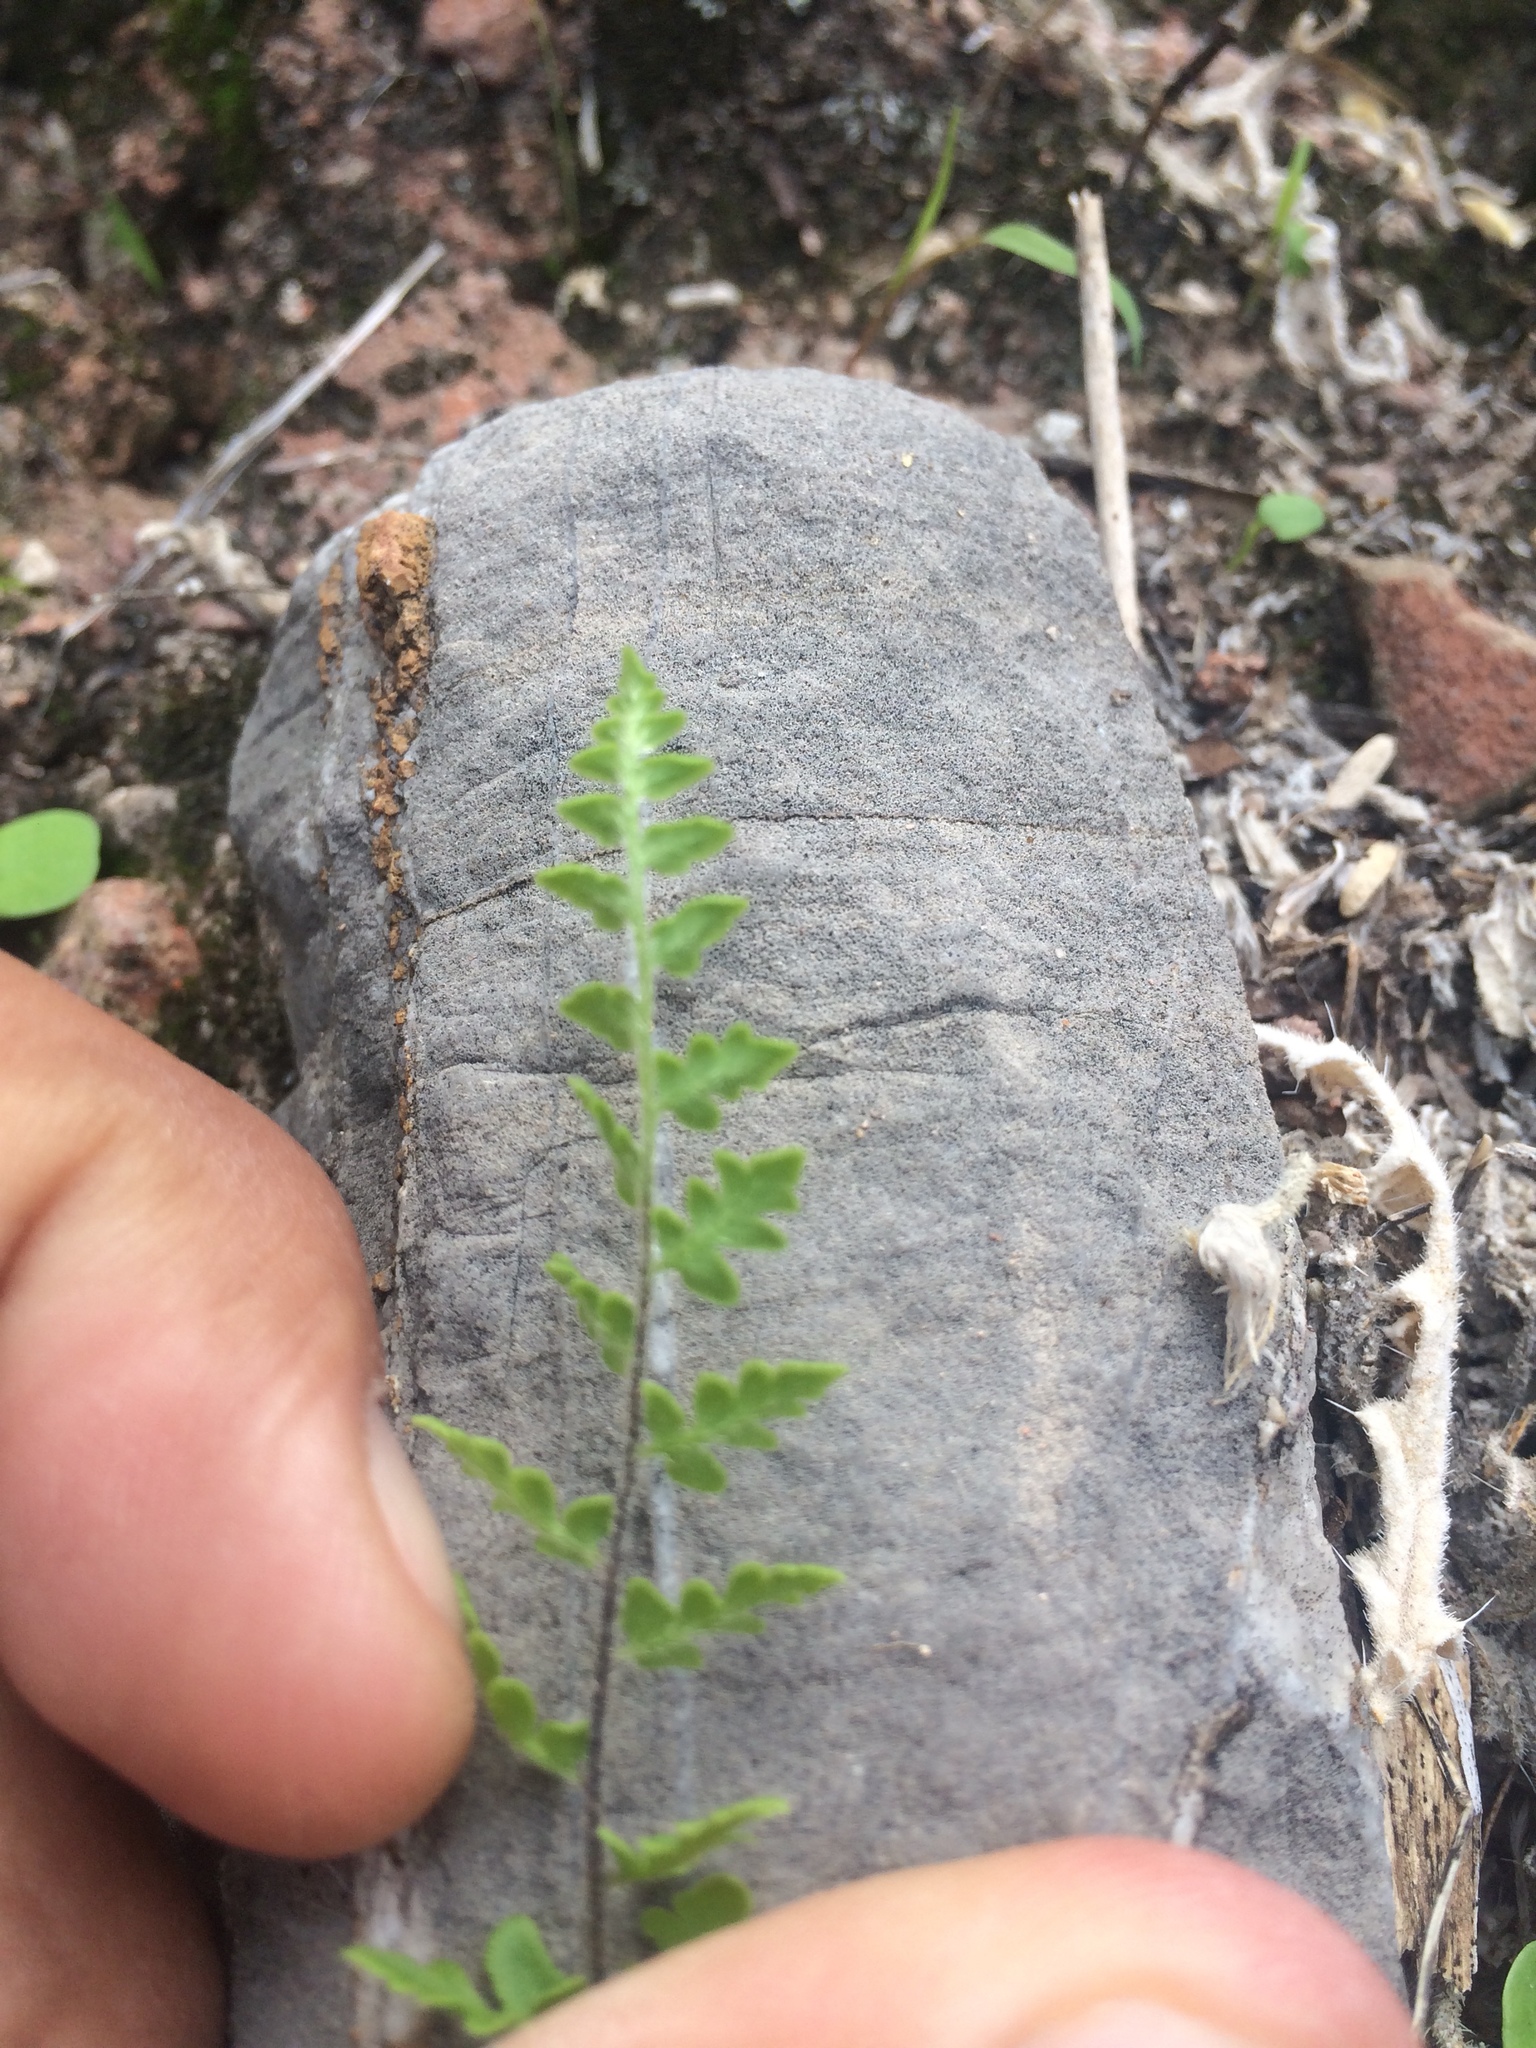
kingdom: Plantae
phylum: Tracheophyta
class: Polypodiopsida
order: Polypodiales
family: Pteridaceae
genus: Myriopteris
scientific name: Myriopteris scabra
